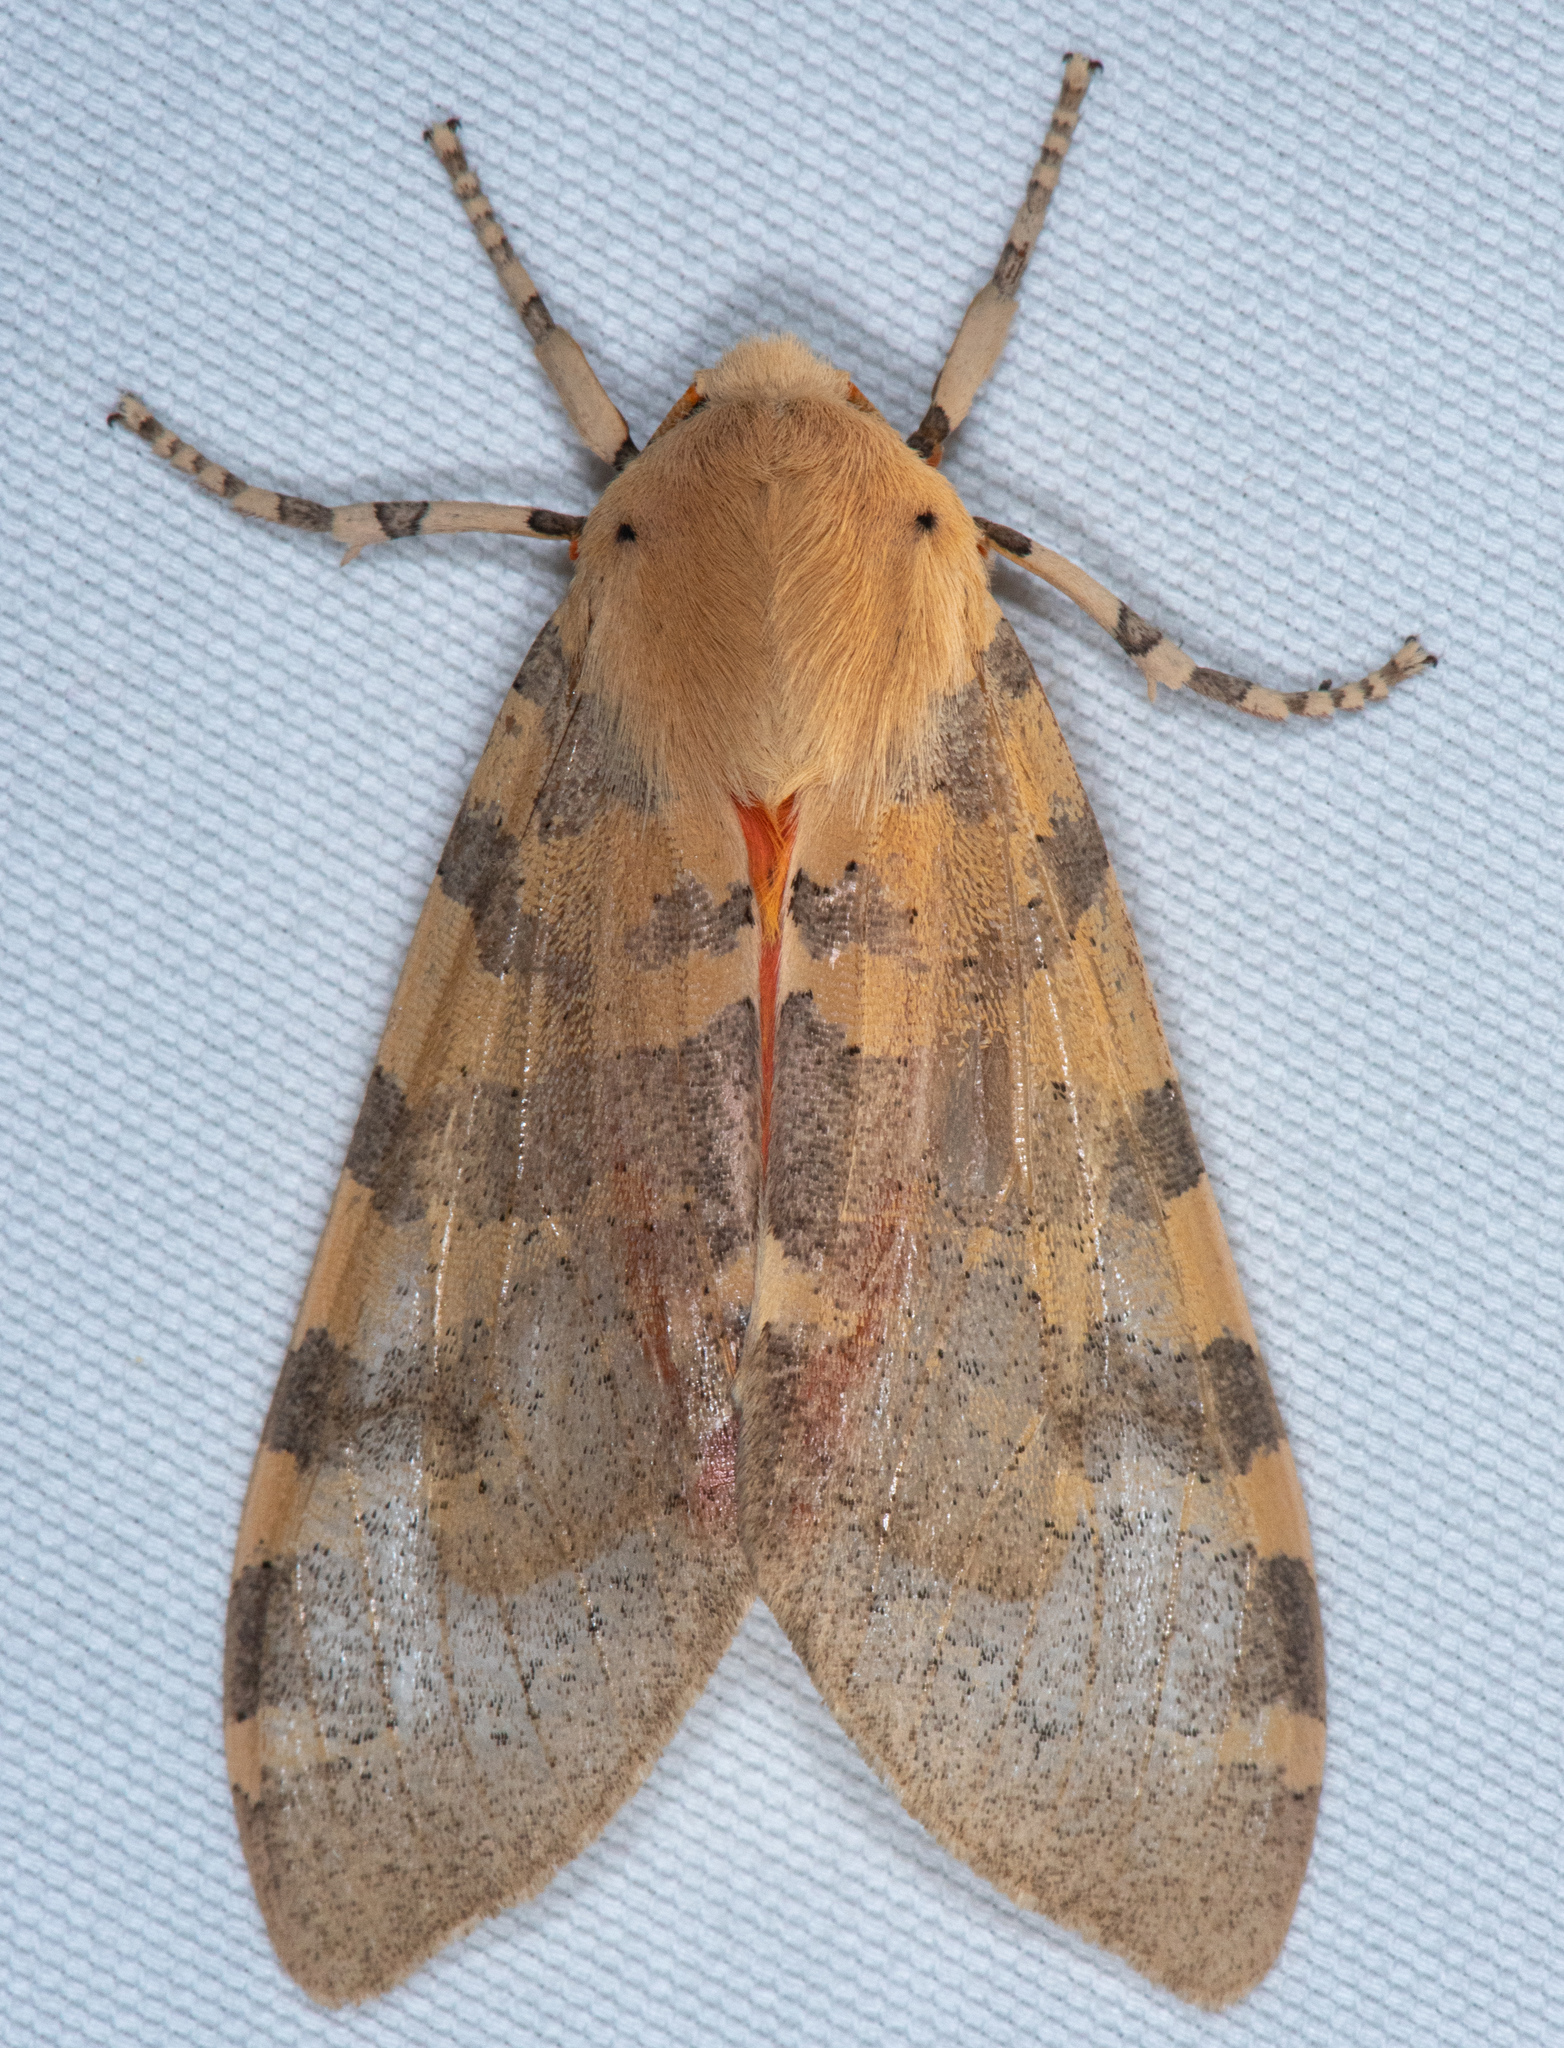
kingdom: Animalia
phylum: Arthropoda
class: Insecta
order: Lepidoptera
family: Erebidae
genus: Hemihyalea
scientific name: Hemihyalea edwardsii
